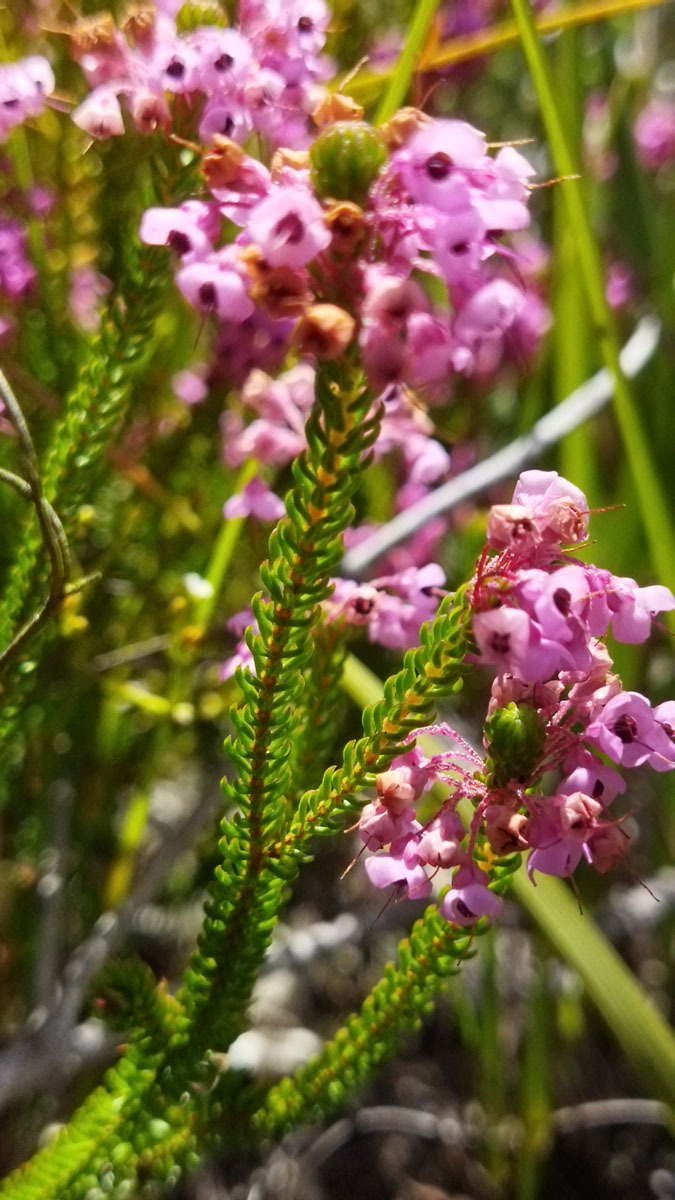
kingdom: Plantae
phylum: Tracheophyta
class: Magnoliopsida
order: Ericales
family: Ericaceae
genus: Erica
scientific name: Erica seriphiifolia
